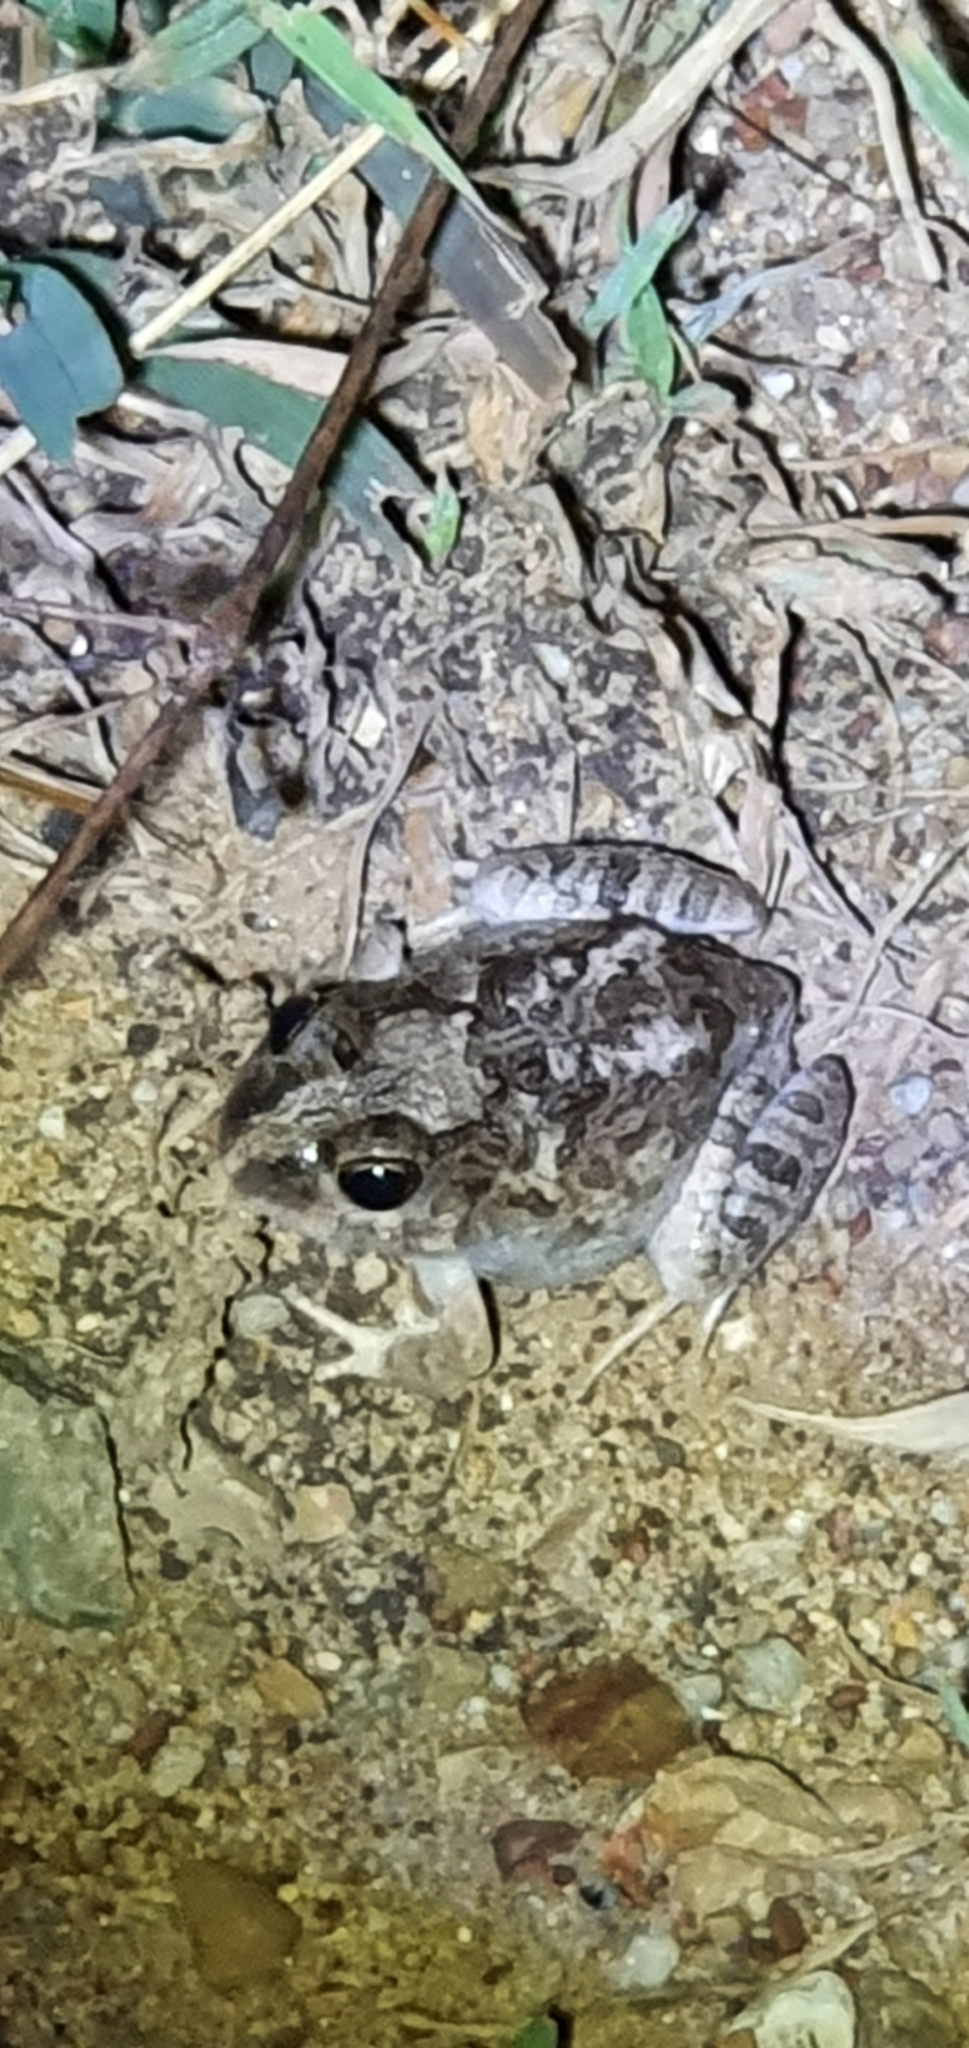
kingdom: Animalia
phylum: Chordata
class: Amphibia
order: Anura
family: Limnodynastidae
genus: Platyplectrum
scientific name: Platyplectrum ornatum
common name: Ornate burrowing frog
